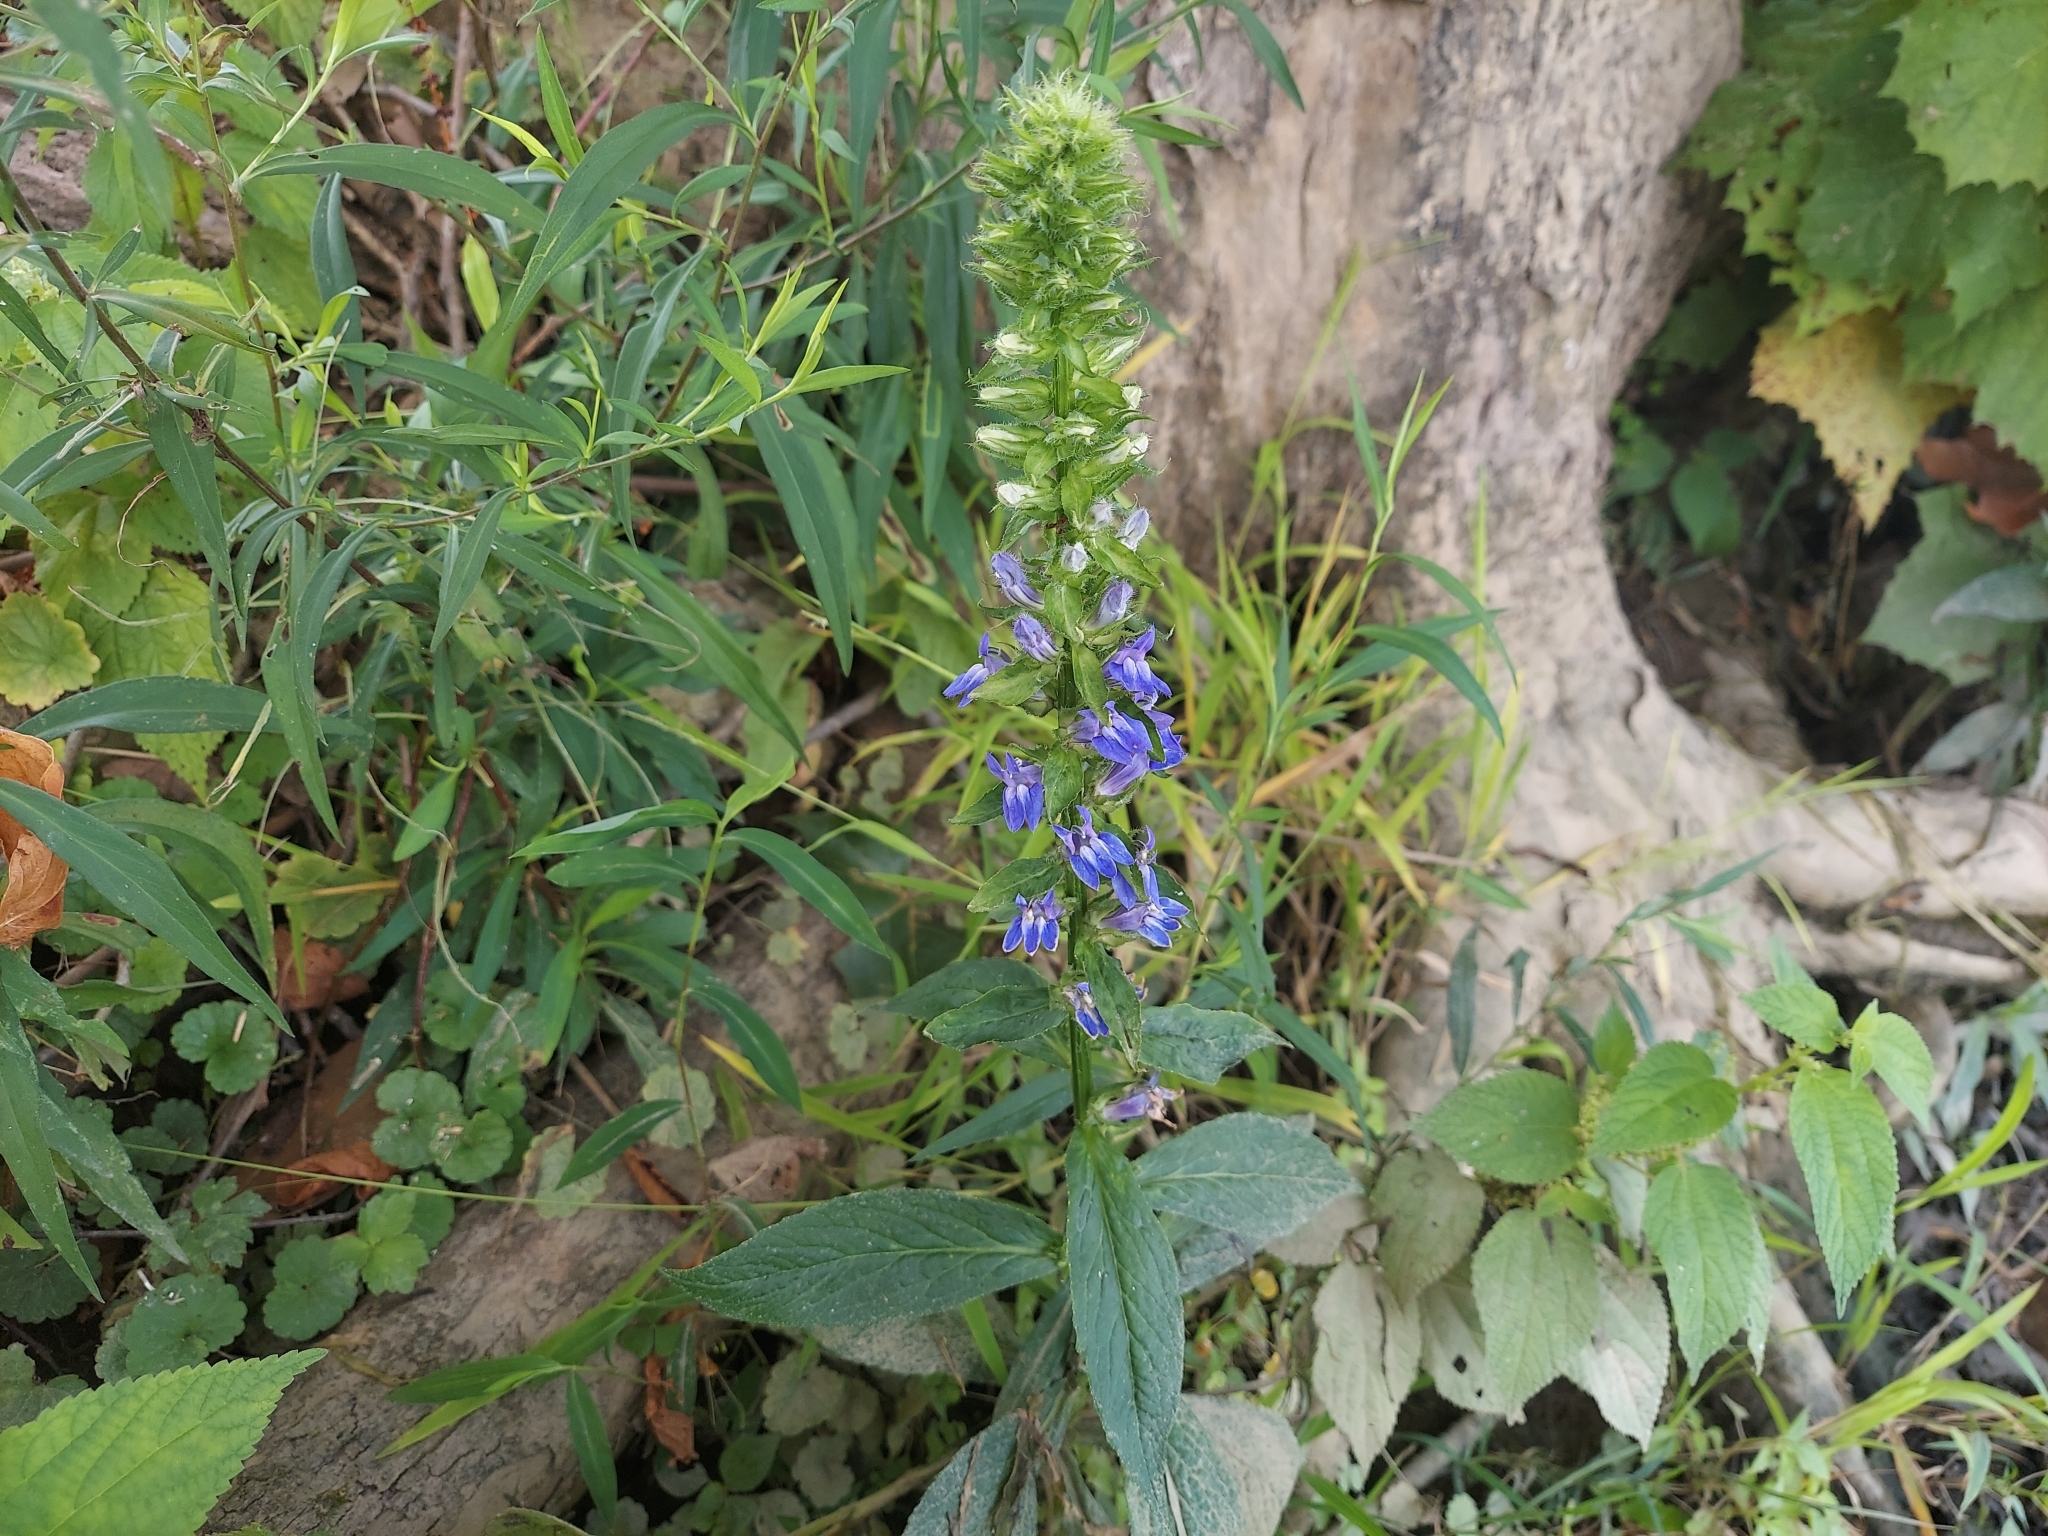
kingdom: Plantae
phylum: Tracheophyta
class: Magnoliopsida
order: Asterales
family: Campanulaceae
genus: Lobelia
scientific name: Lobelia siphilitica
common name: Great lobelia
